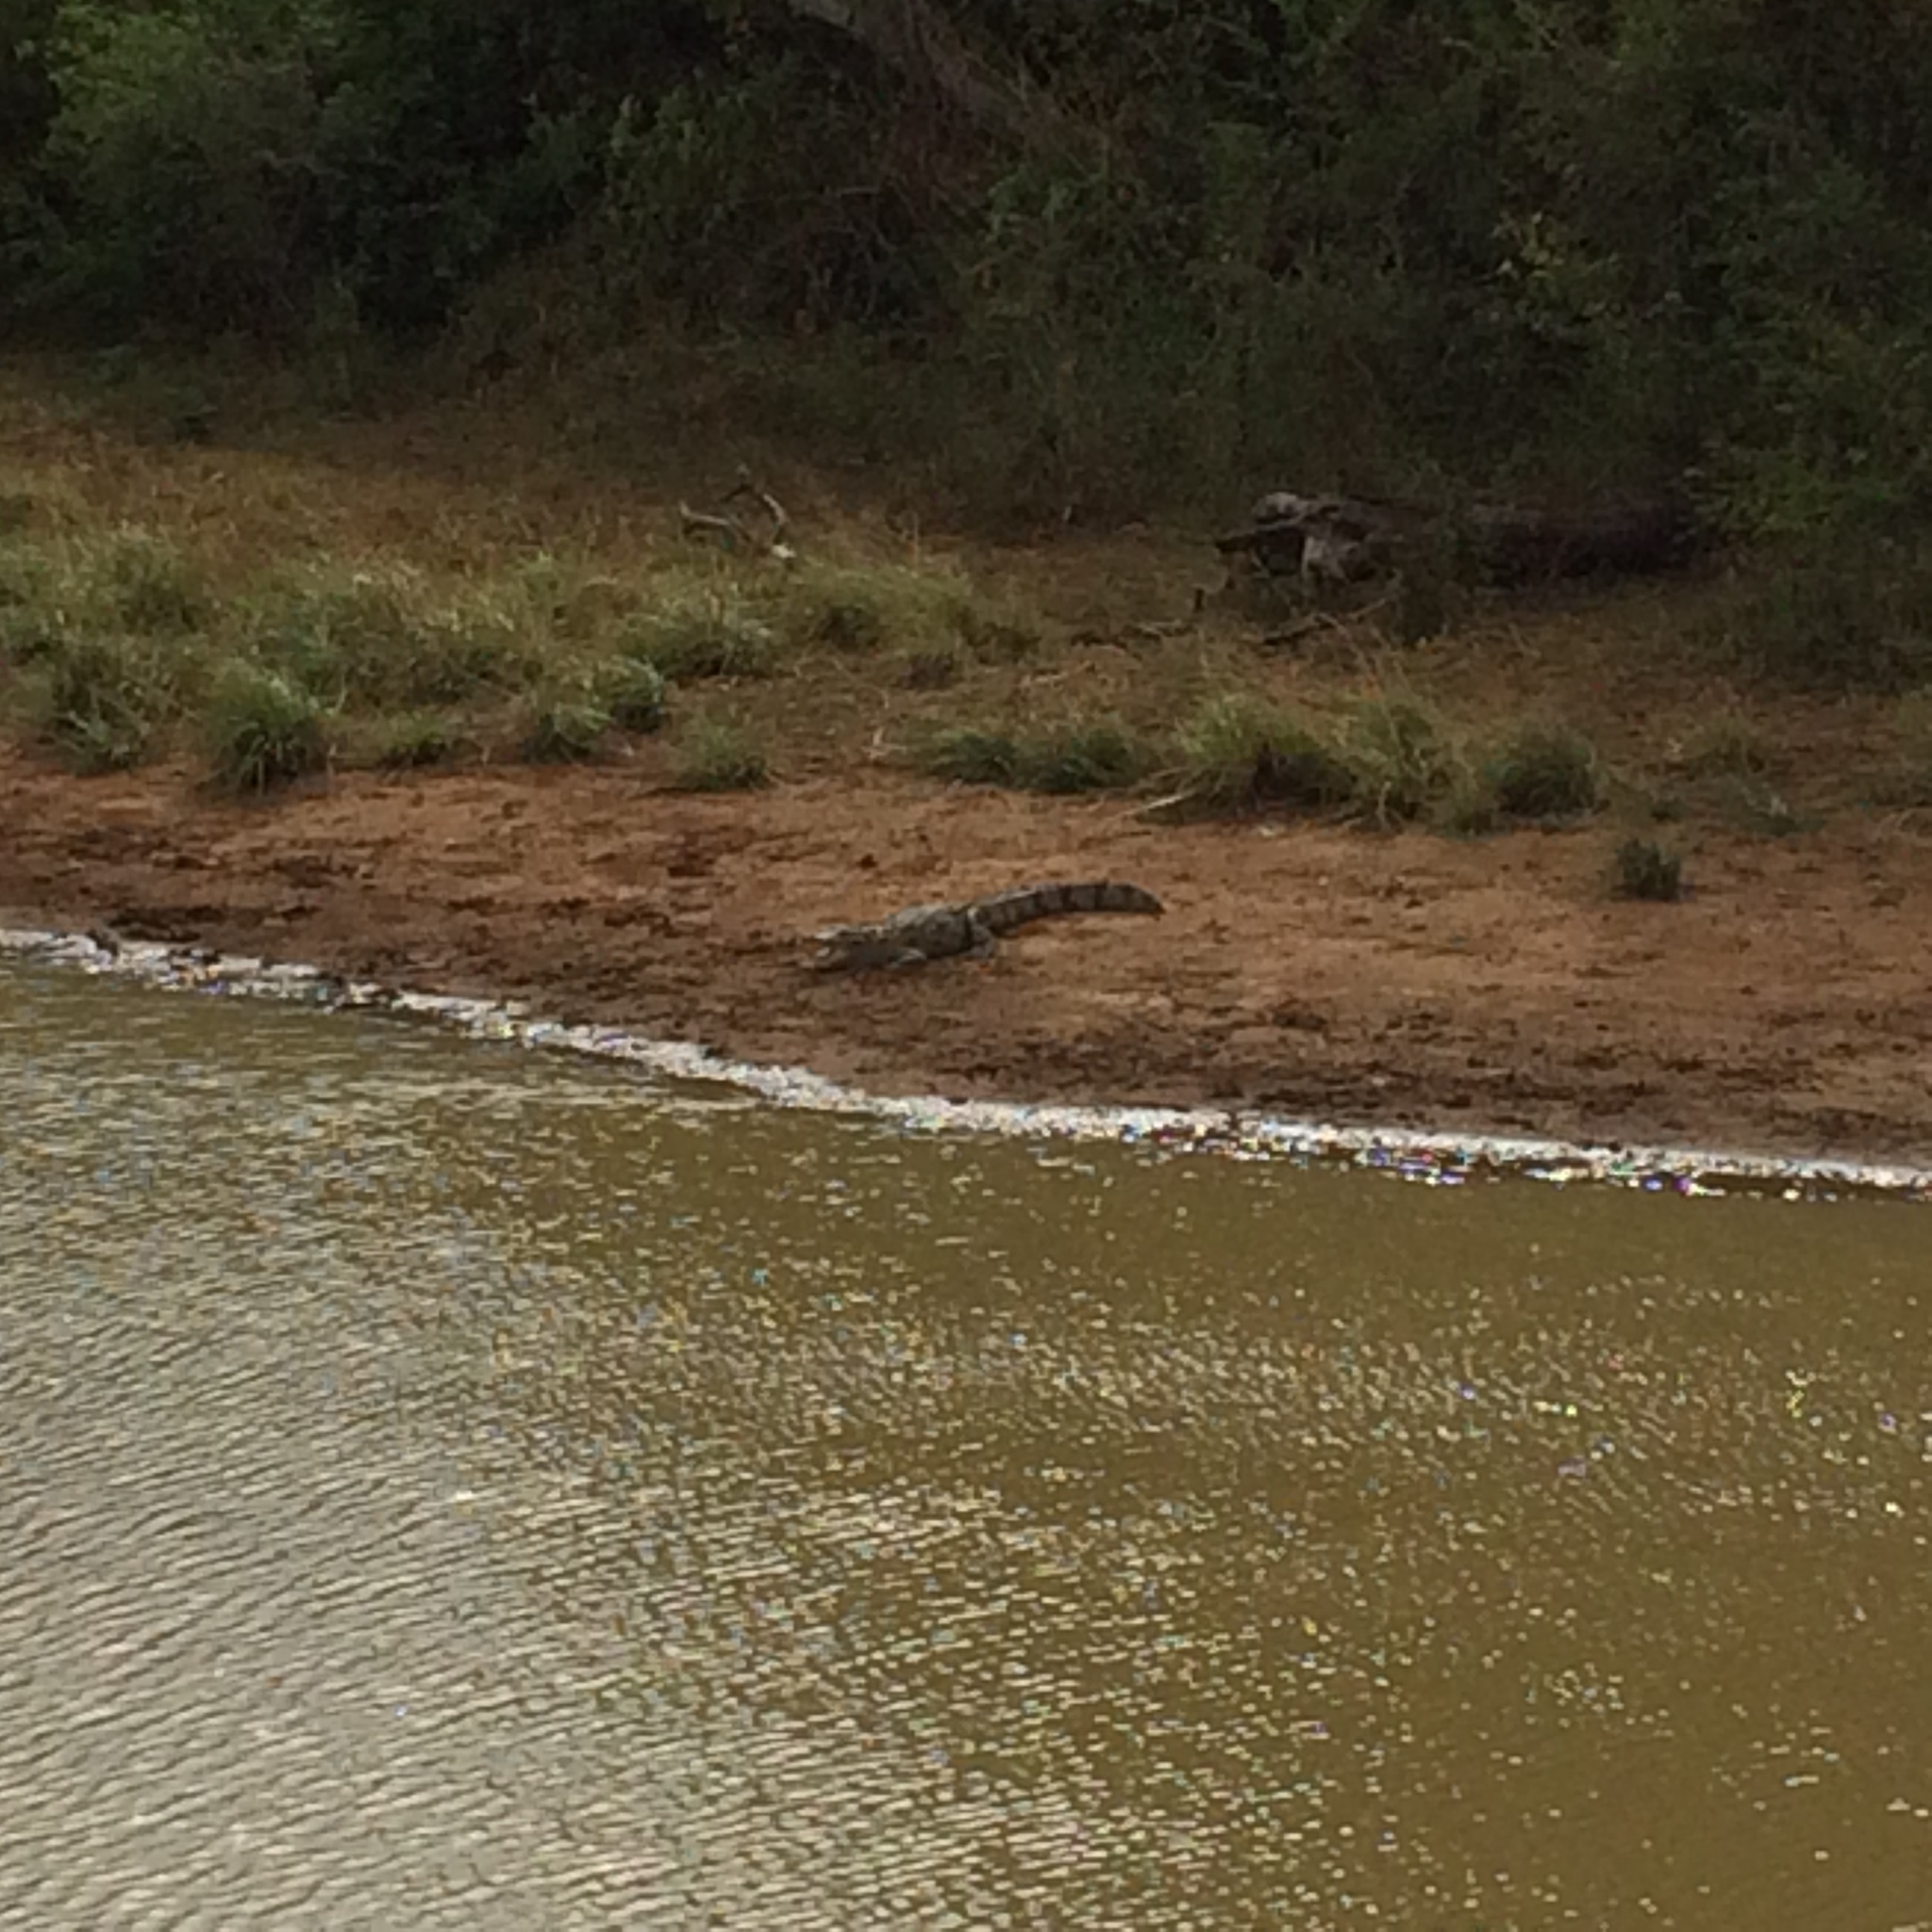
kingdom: Animalia
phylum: Chordata
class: Crocodylia
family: Crocodylidae
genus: Crocodylus
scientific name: Crocodylus palustris
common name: Mugger crocodile
